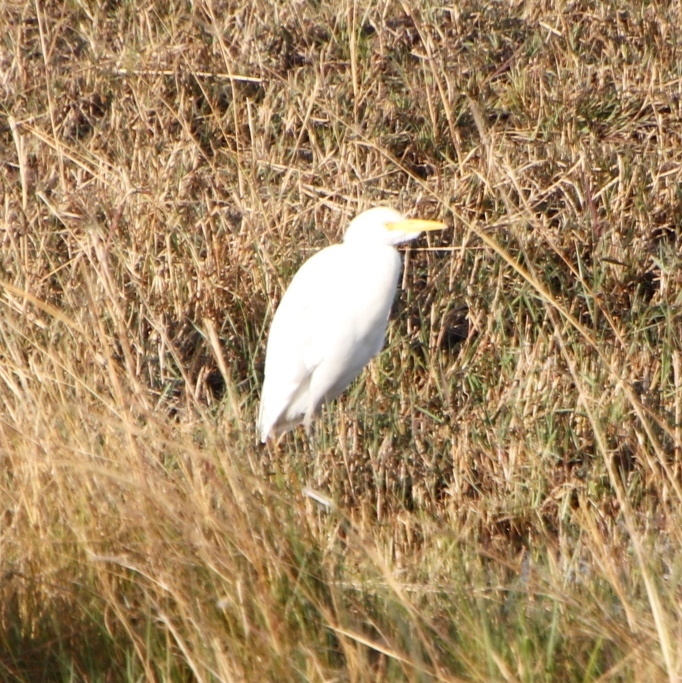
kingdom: Animalia
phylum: Chordata
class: Aves
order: Pelecaniformes
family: Ardeidae
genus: Bubulcus
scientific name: Bubulcus ibis
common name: Cattle egret
